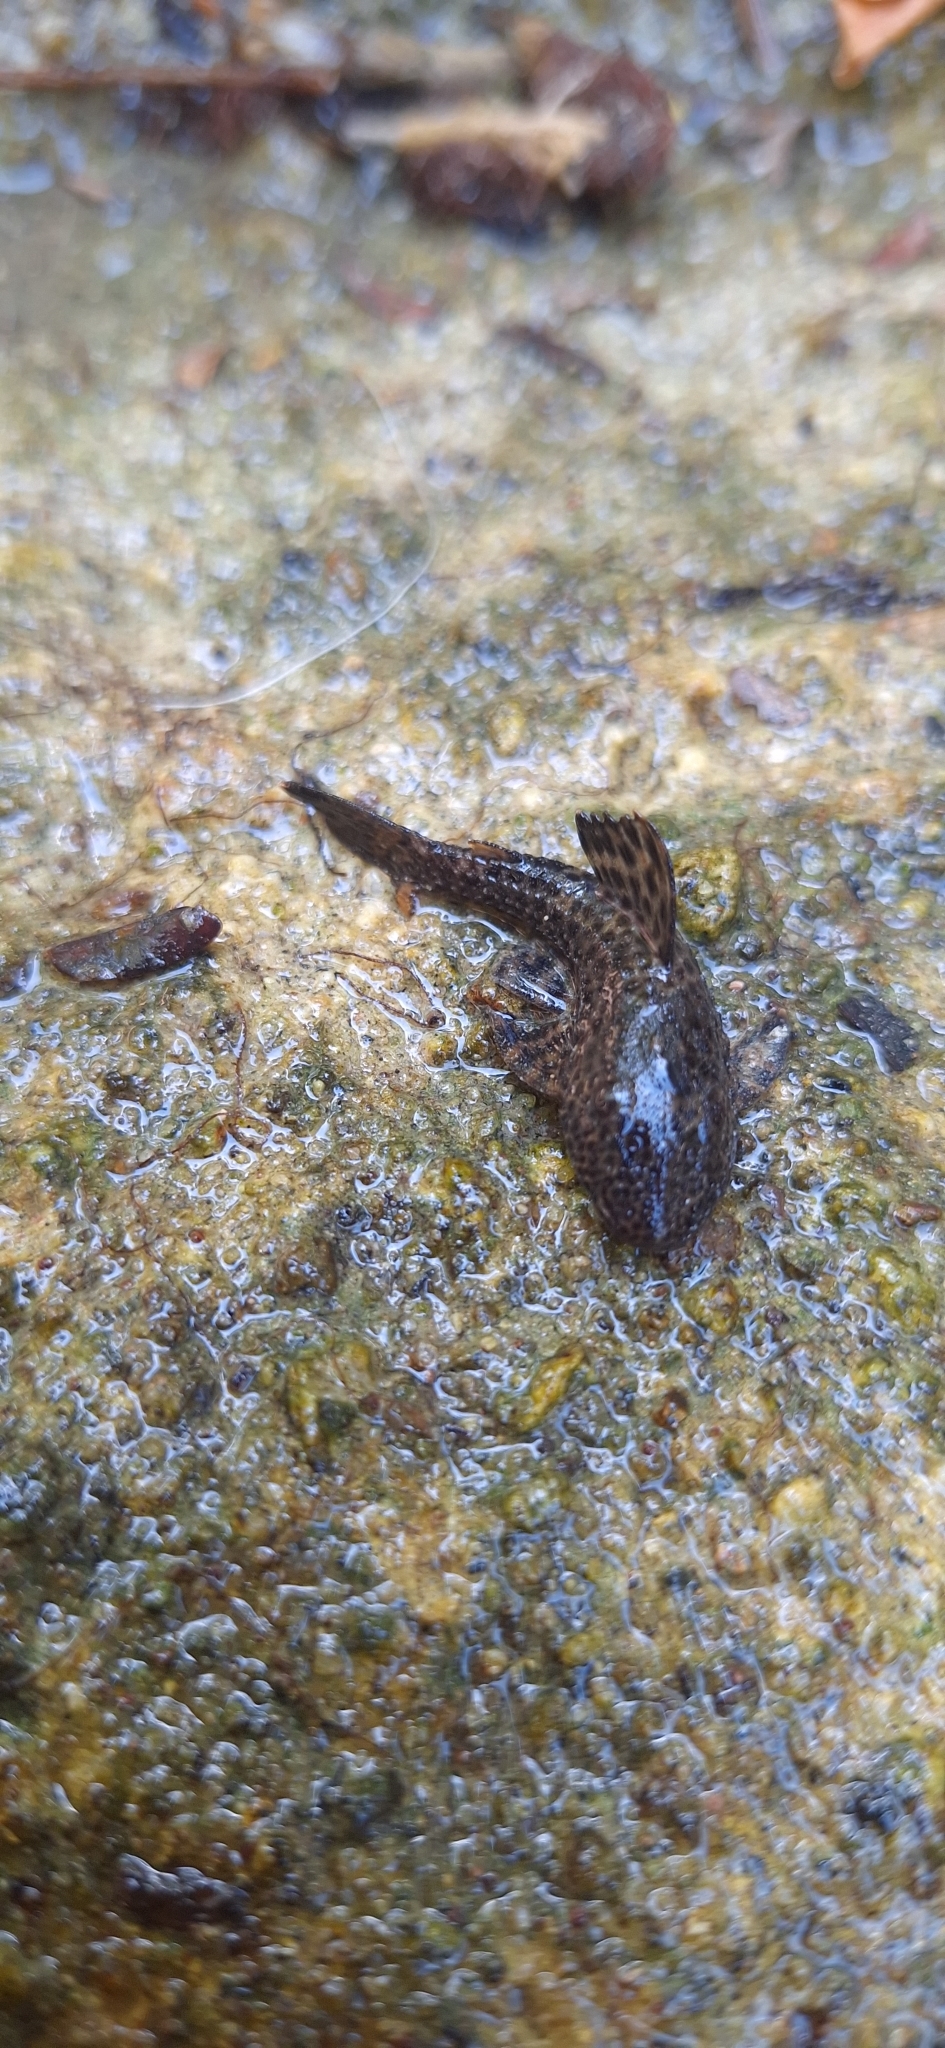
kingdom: Animalia
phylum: Chordata
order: Siluriformes
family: Loricariidae
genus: Hemiancistrus
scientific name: Hemiancistrus aspidolepis
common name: Panama suckermouth
